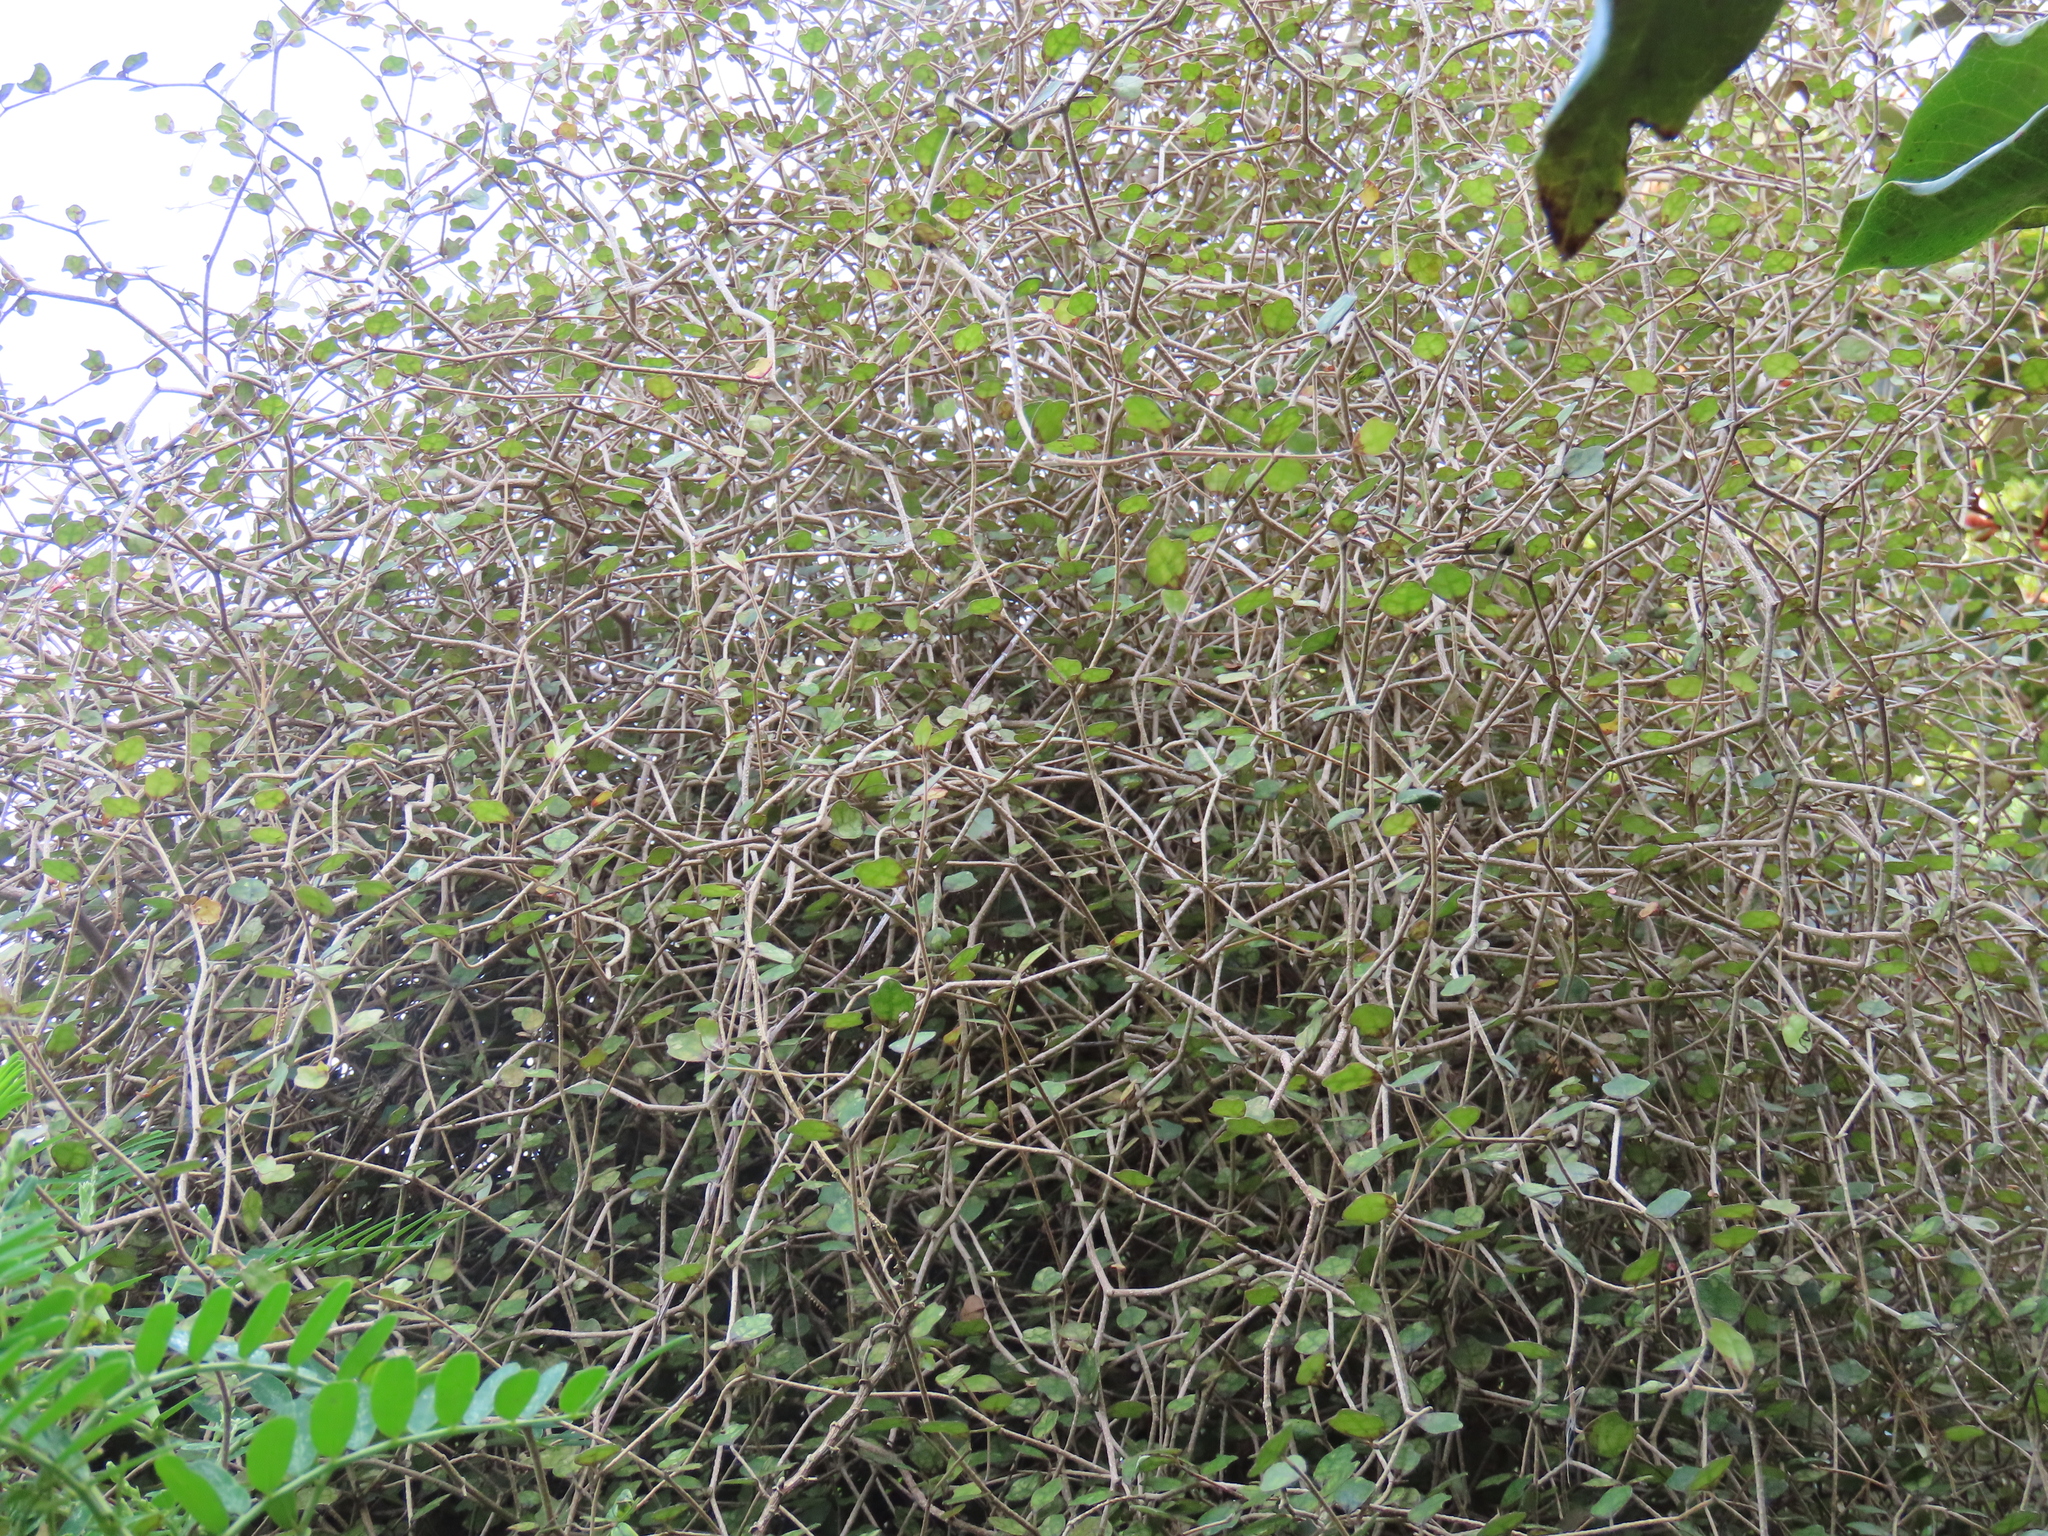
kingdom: Plantae
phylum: Tracheophyta
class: Magnoliopsida
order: Apiales
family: Pennantiaceae
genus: Pennantia
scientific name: Pennantia corymbosa
